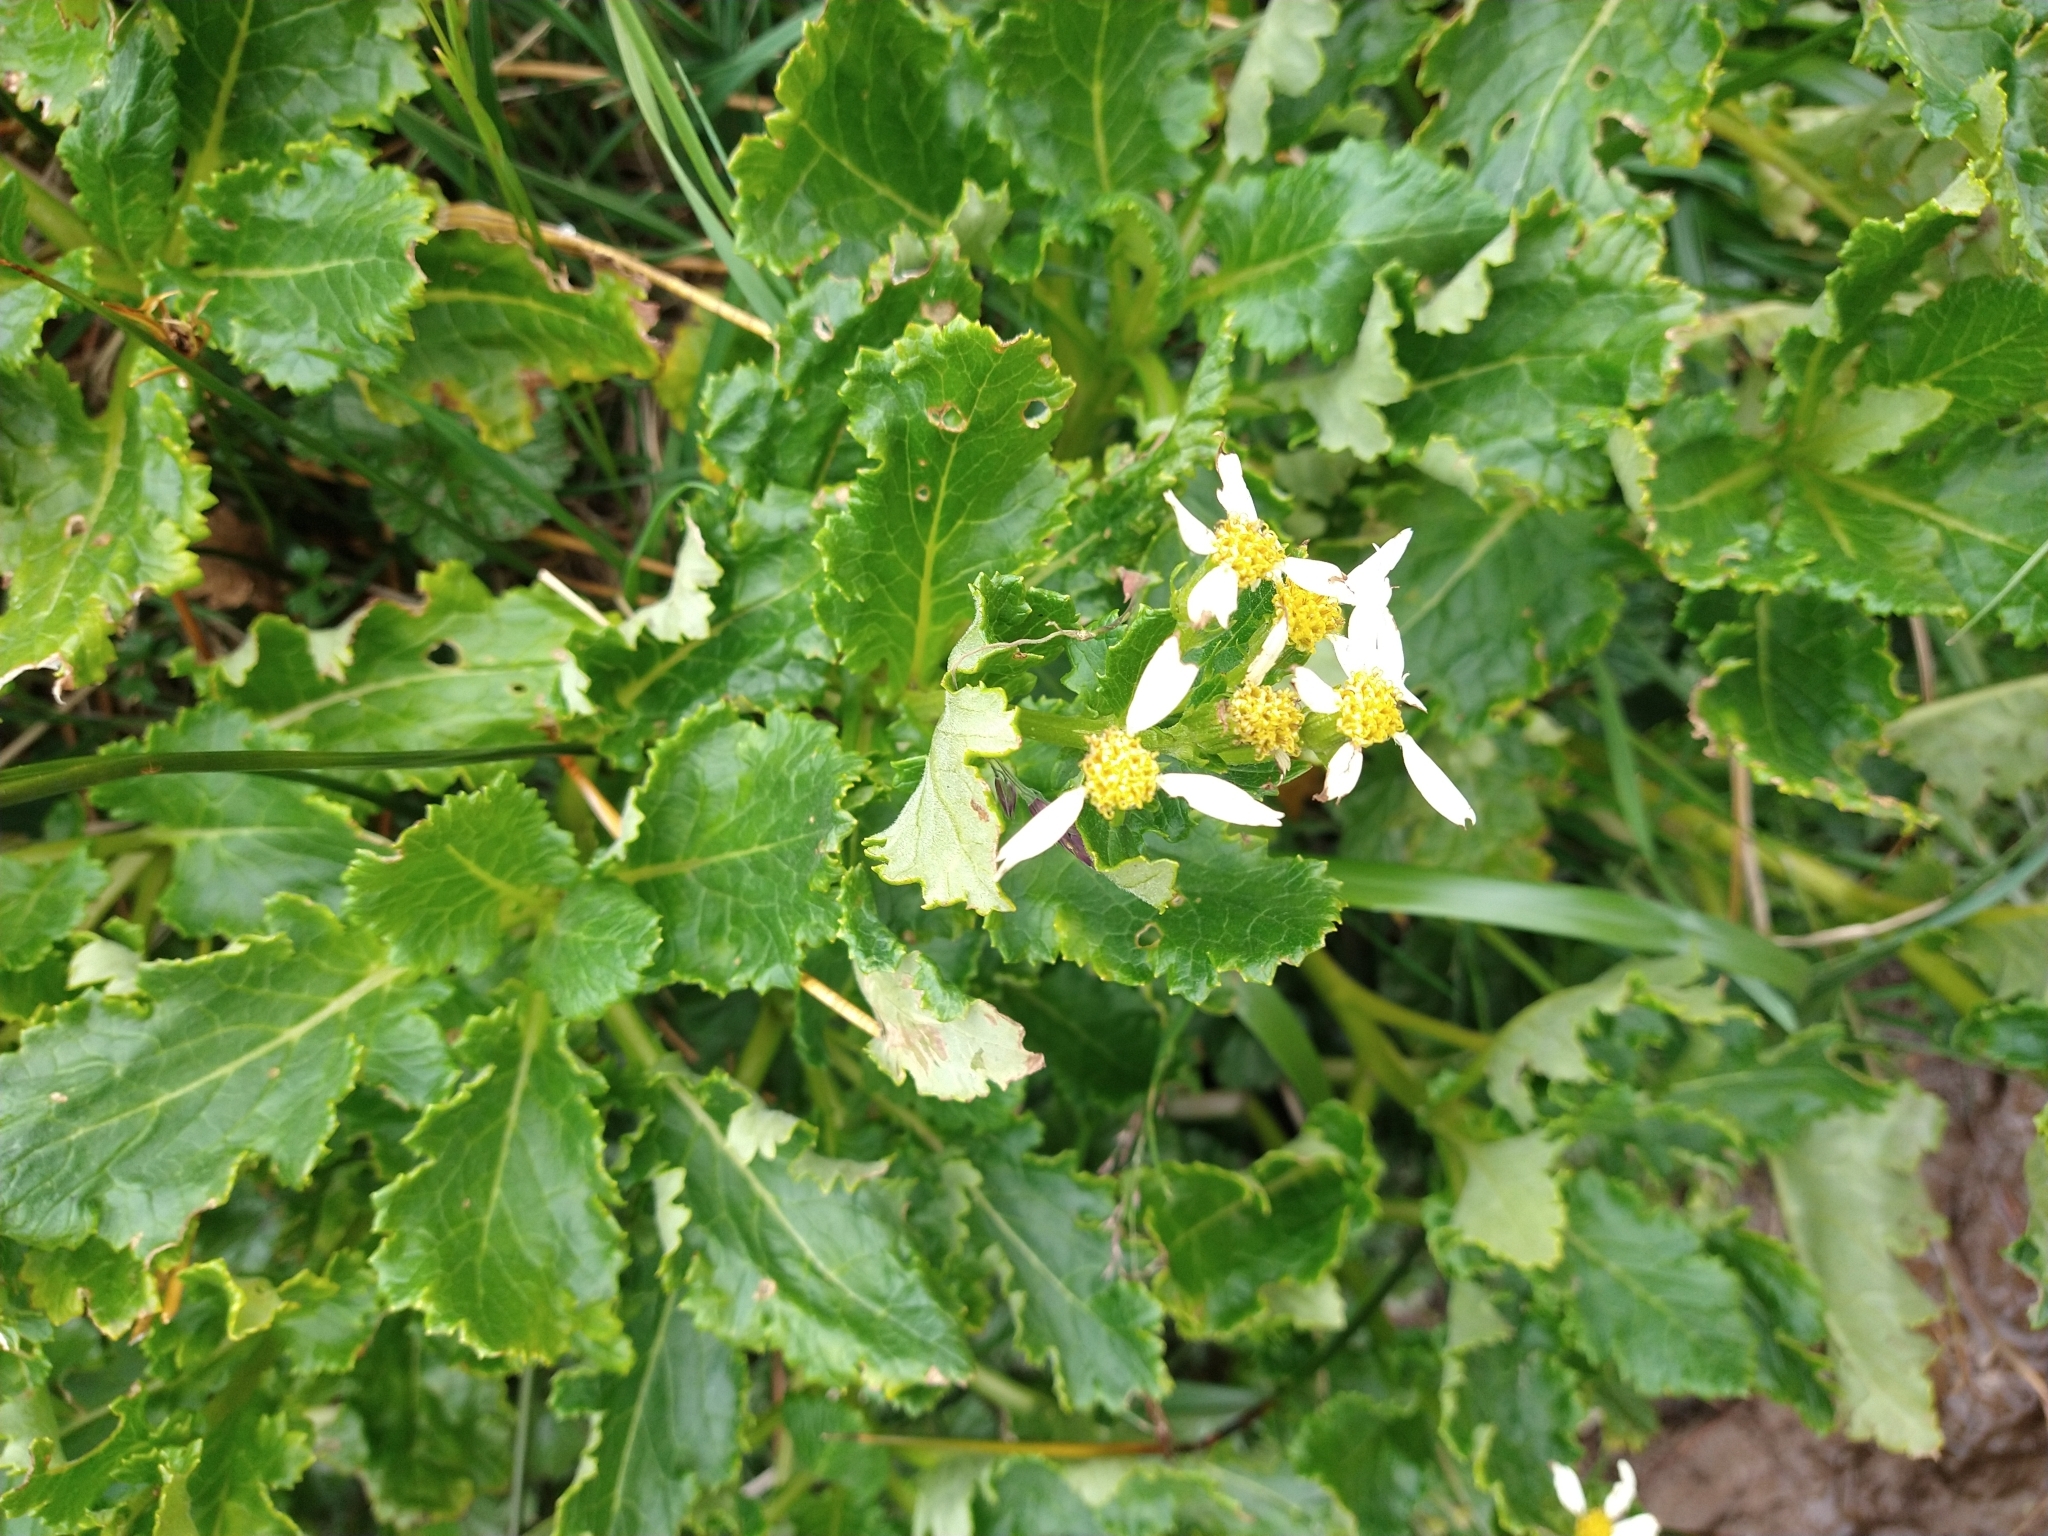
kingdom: Plantae
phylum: Tracheophyta
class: Magnoliopsida
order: Asterales
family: Asteraceae
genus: Iocenes
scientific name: Iocenes virens
